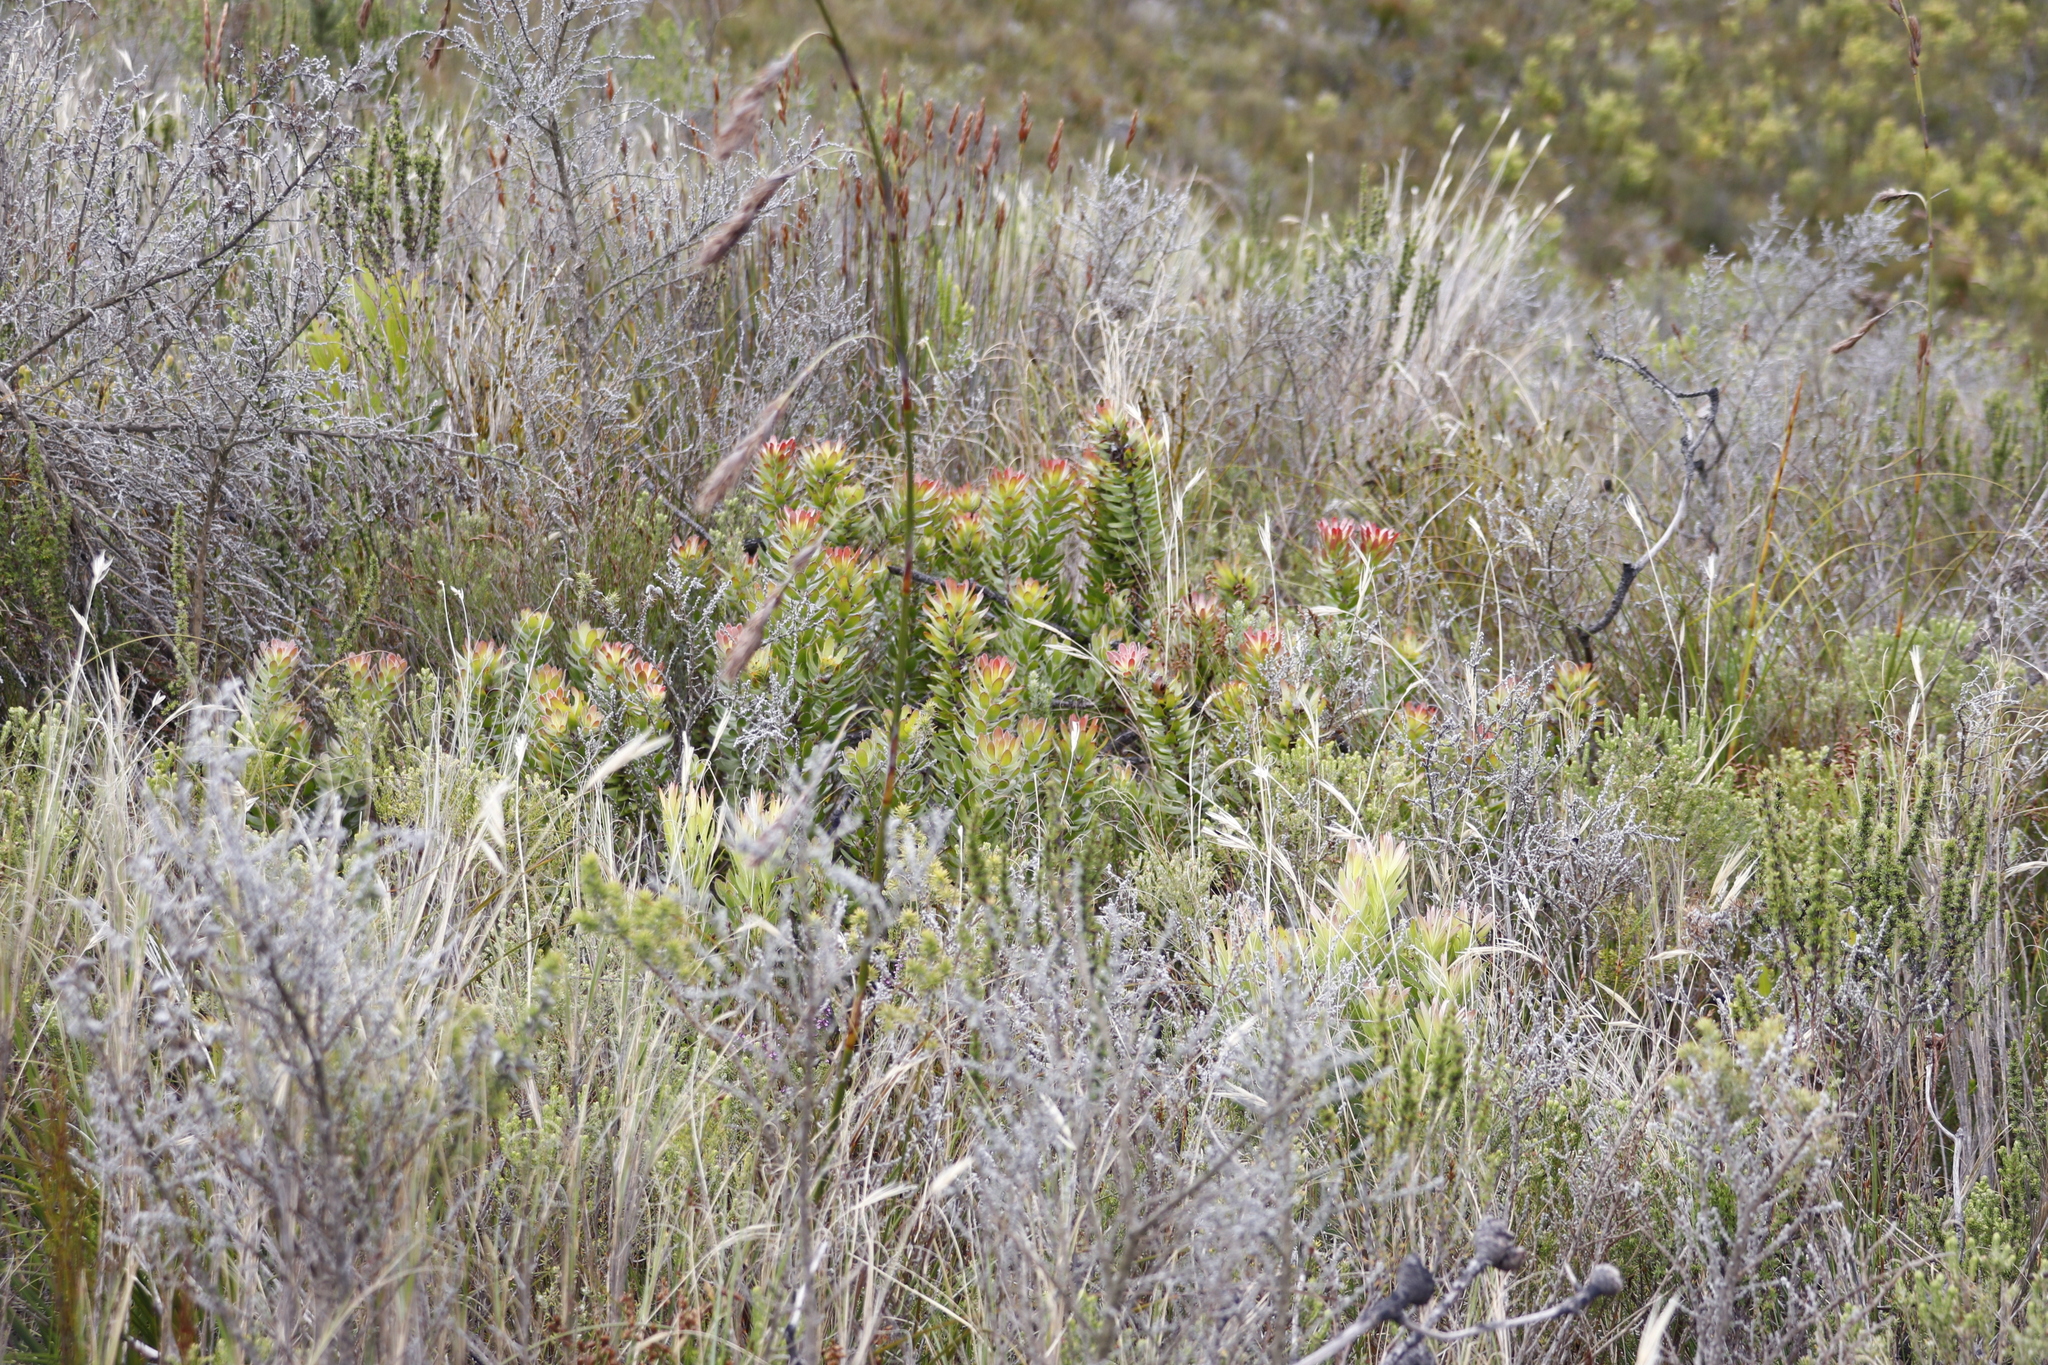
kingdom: Plantae
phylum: Tracheophyta
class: Magnoliopsida
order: Proteales
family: Proteaceae
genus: Mimetes
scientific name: Mimetes cucullatus
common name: Common pagoda
